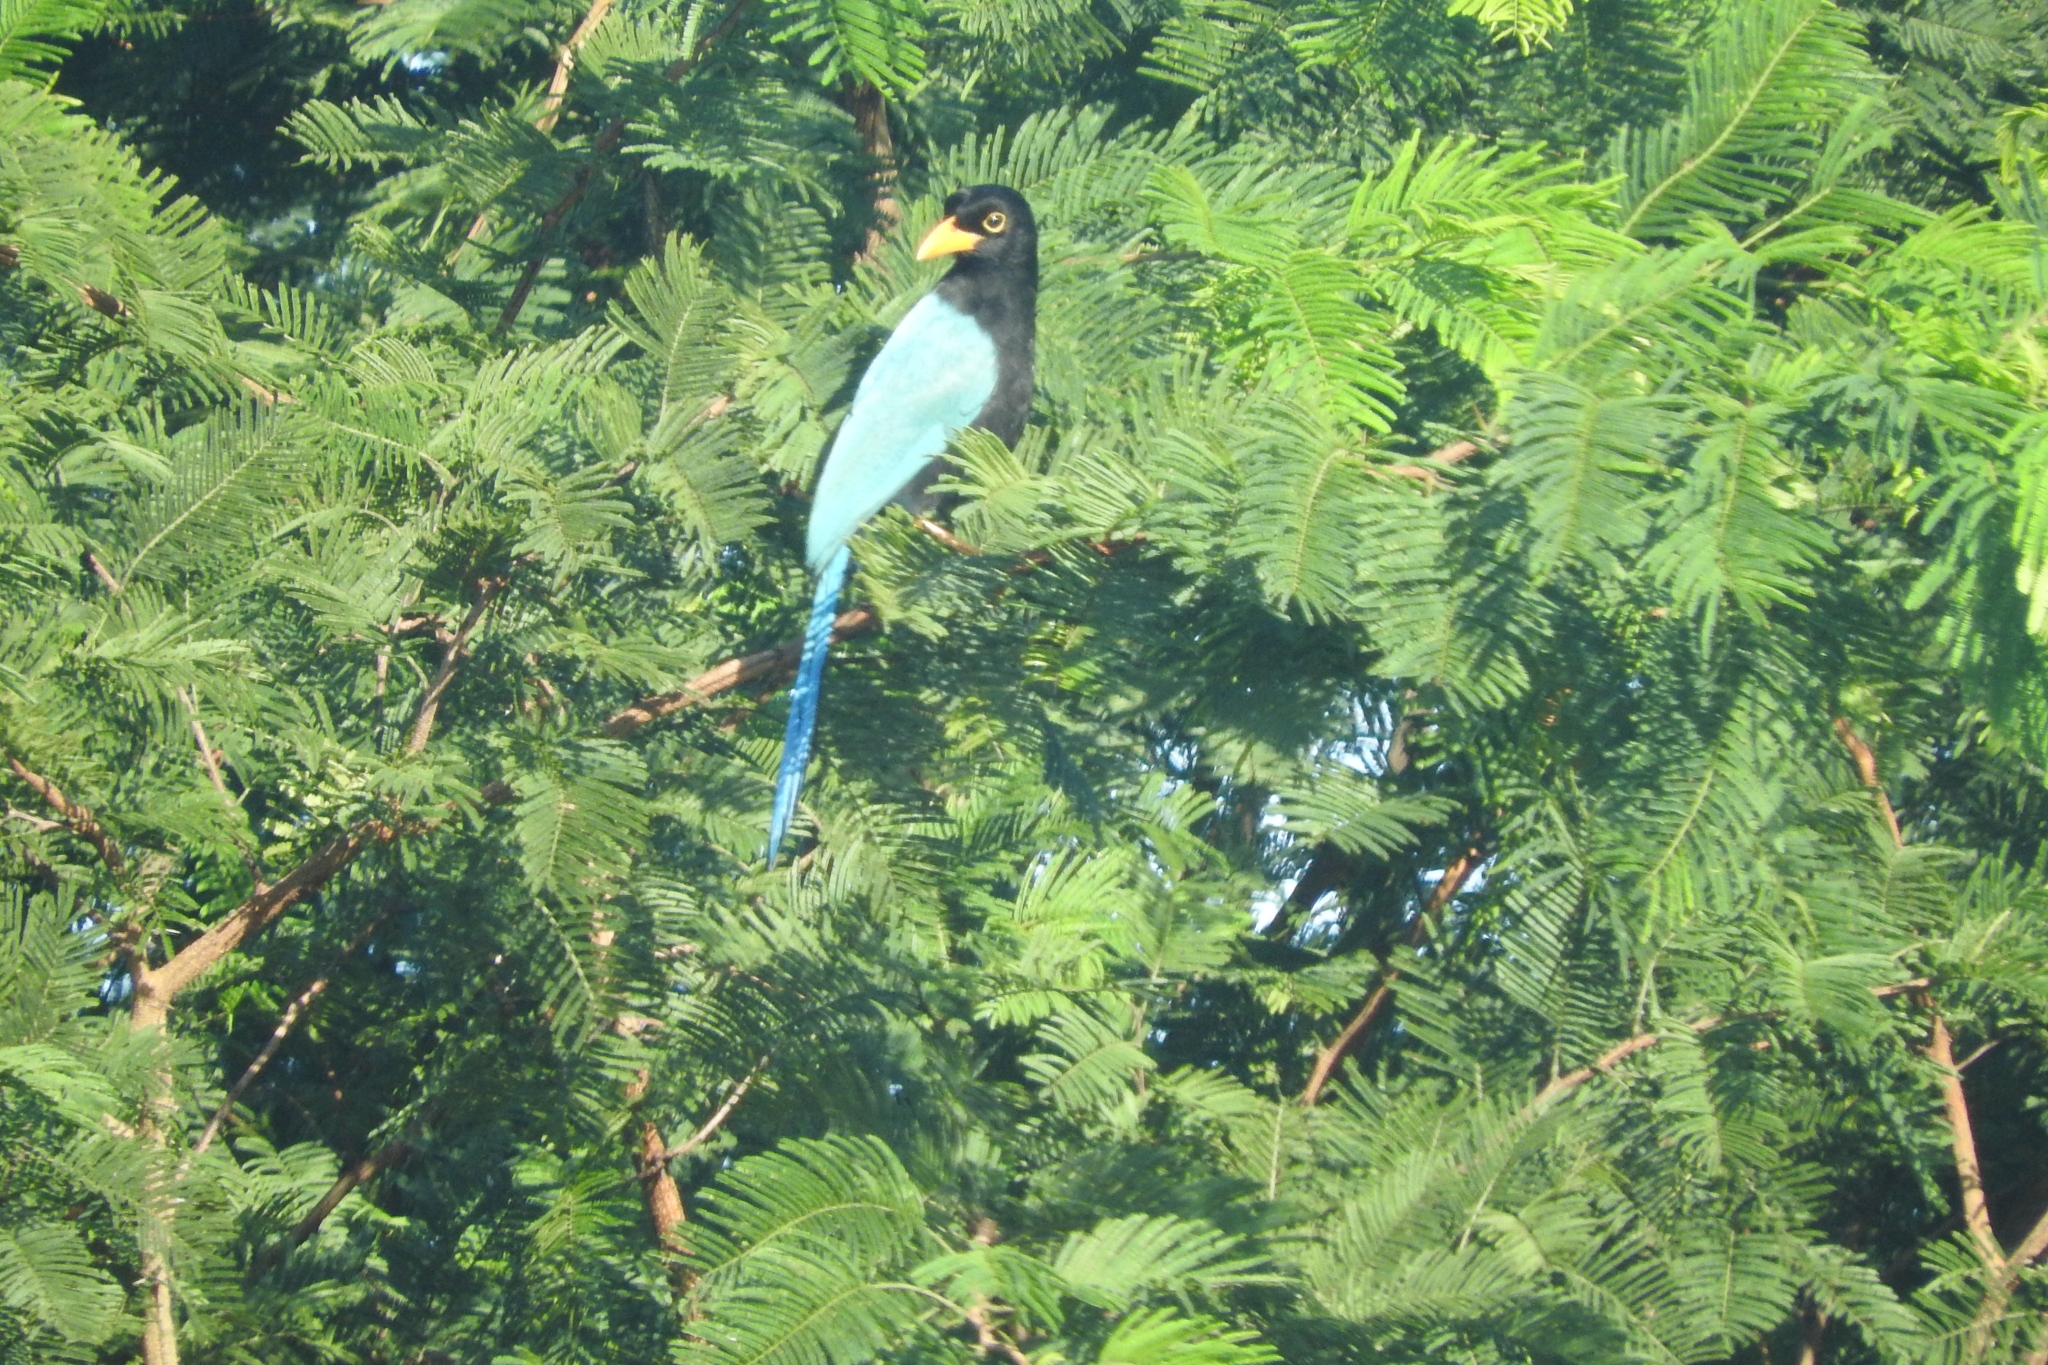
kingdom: Animalia
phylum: Chordata
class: Aves
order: Passeriformes
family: Corvidae
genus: Cyanocorax
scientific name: Cyanocorax yucatanicus
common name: Yucatan jay
